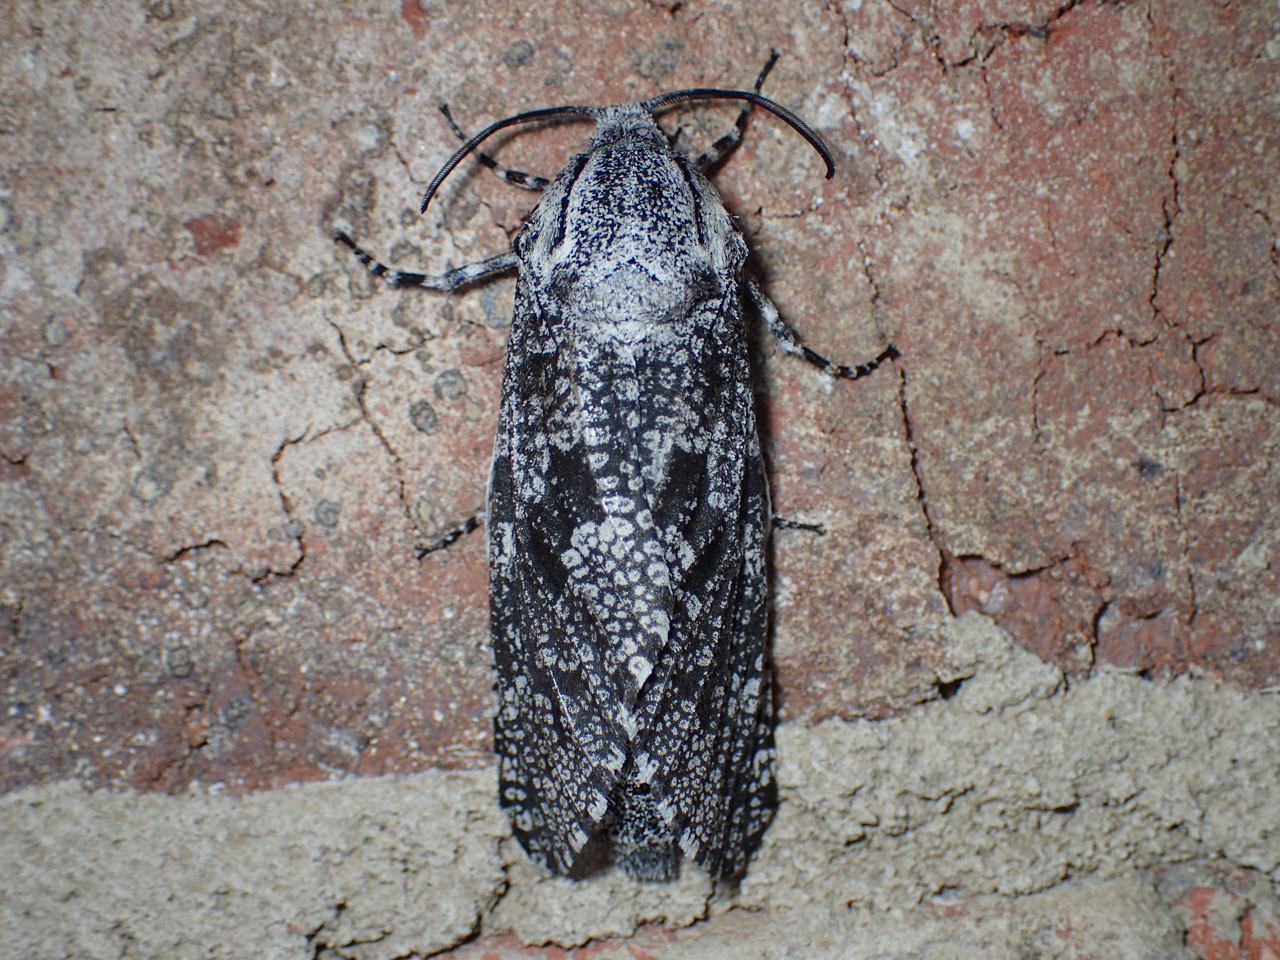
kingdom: Animalia
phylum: Arthropoda
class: Insecta
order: Lepidoptera
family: Cossidae
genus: Prionoxystus
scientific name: Prionoxystus robiniae
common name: Carpenterworm
